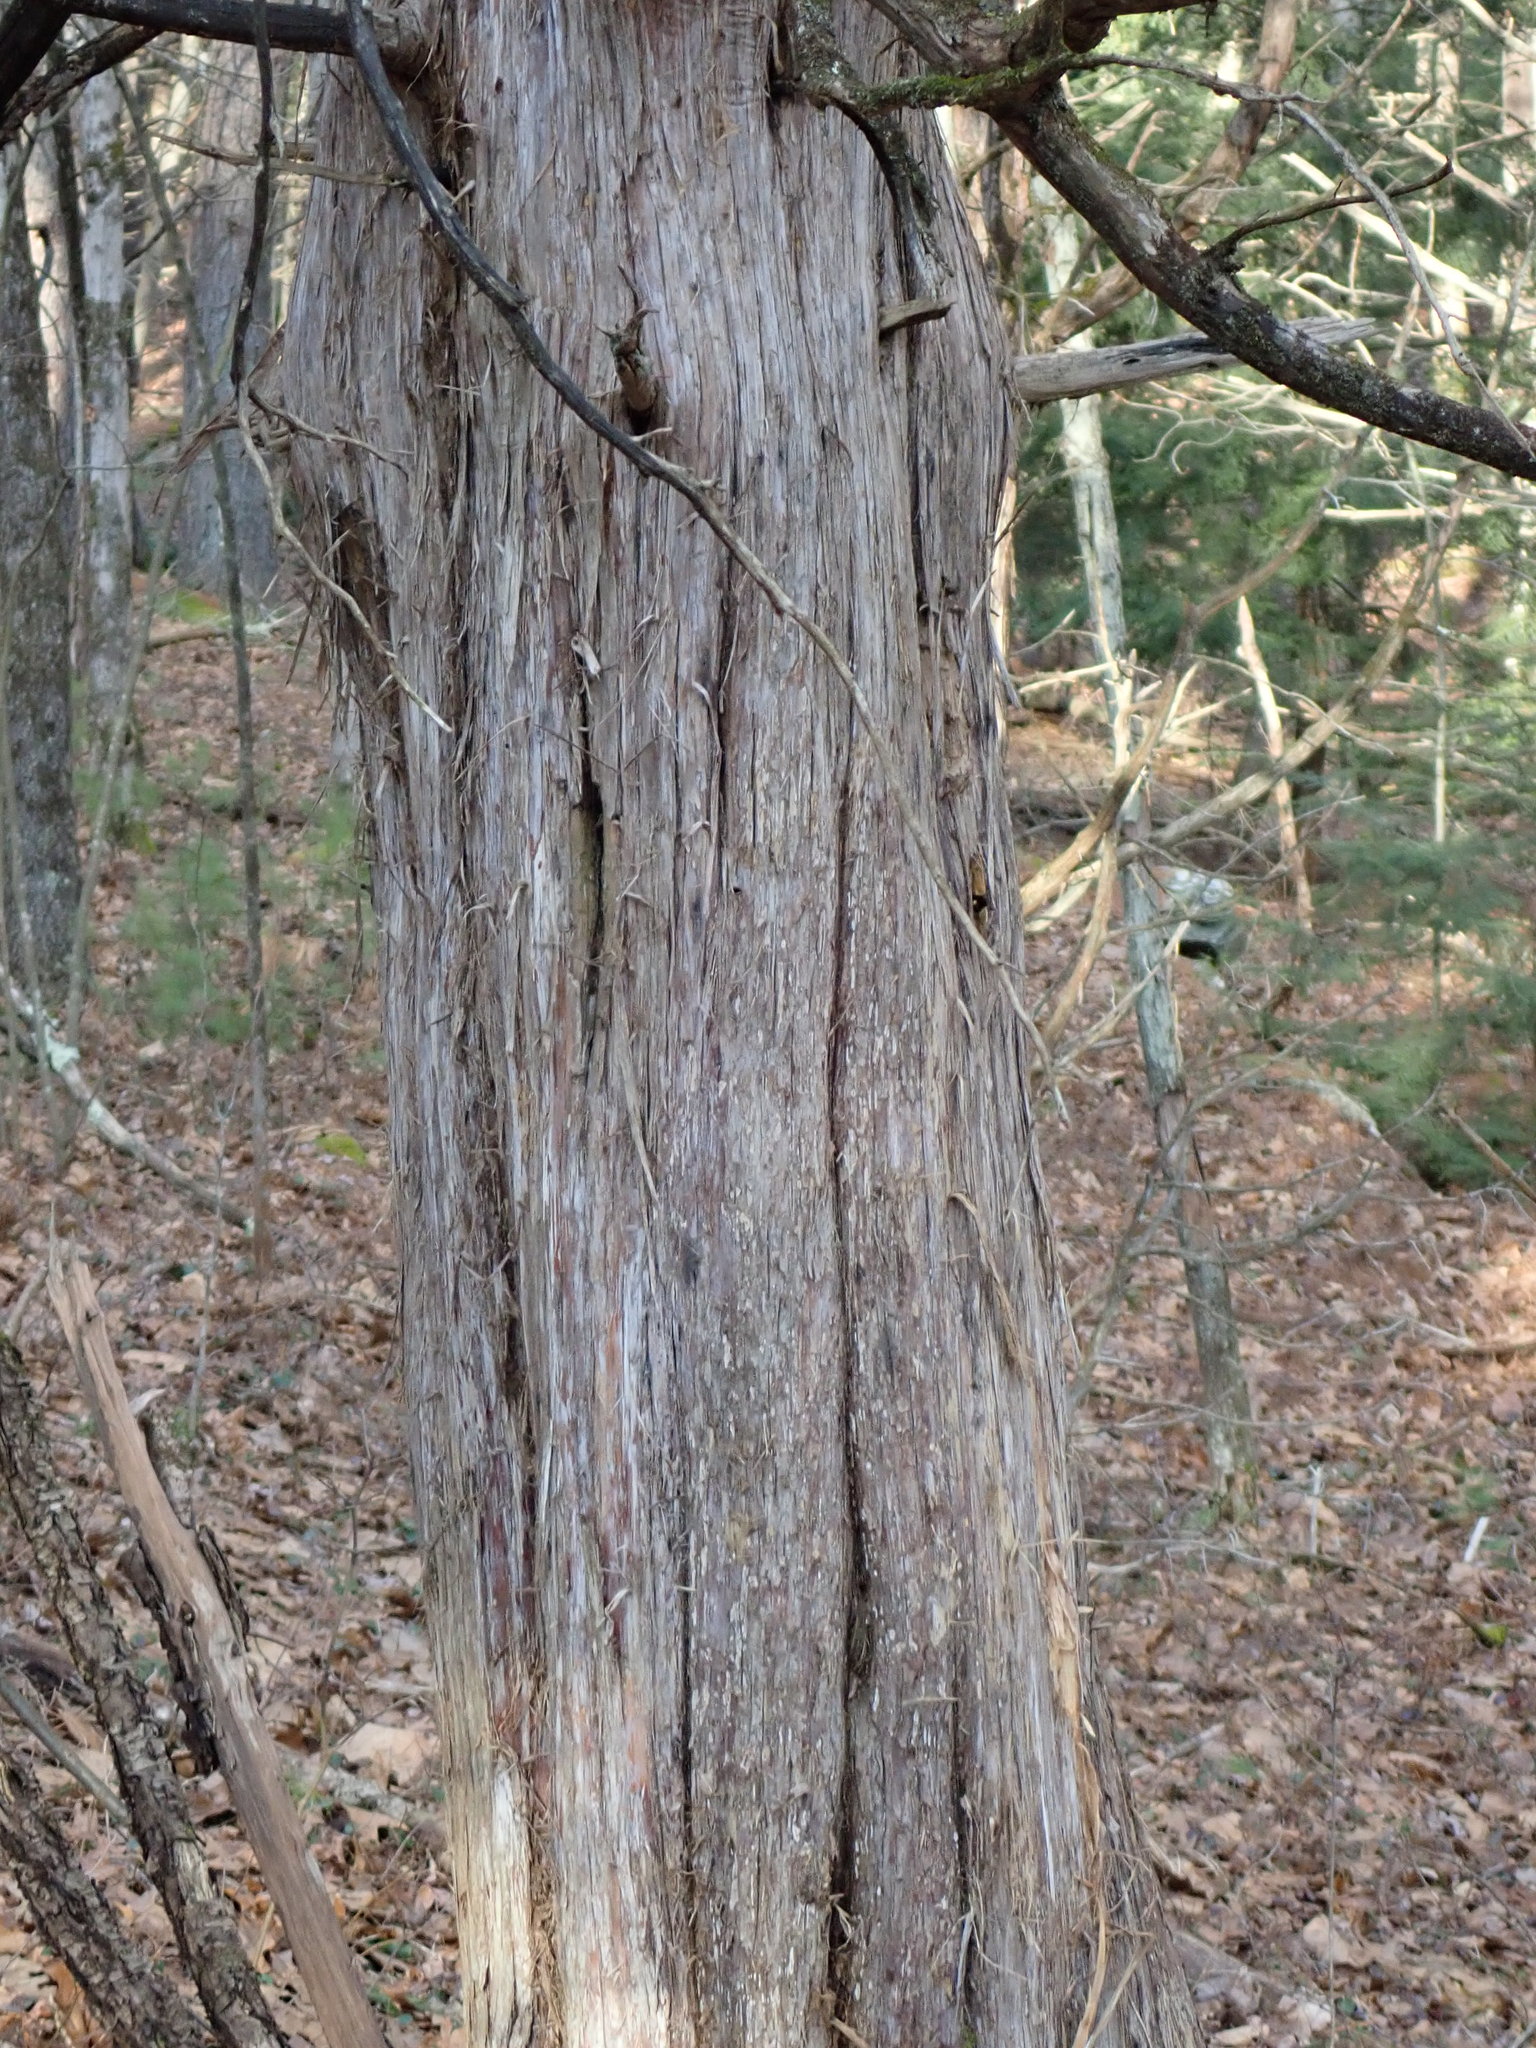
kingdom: Plantae
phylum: Tracheophyta
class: Pinopsida
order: Pinales
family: Cupressaceae
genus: Juniperus
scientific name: Juniperus virginiana
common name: Red juniper
